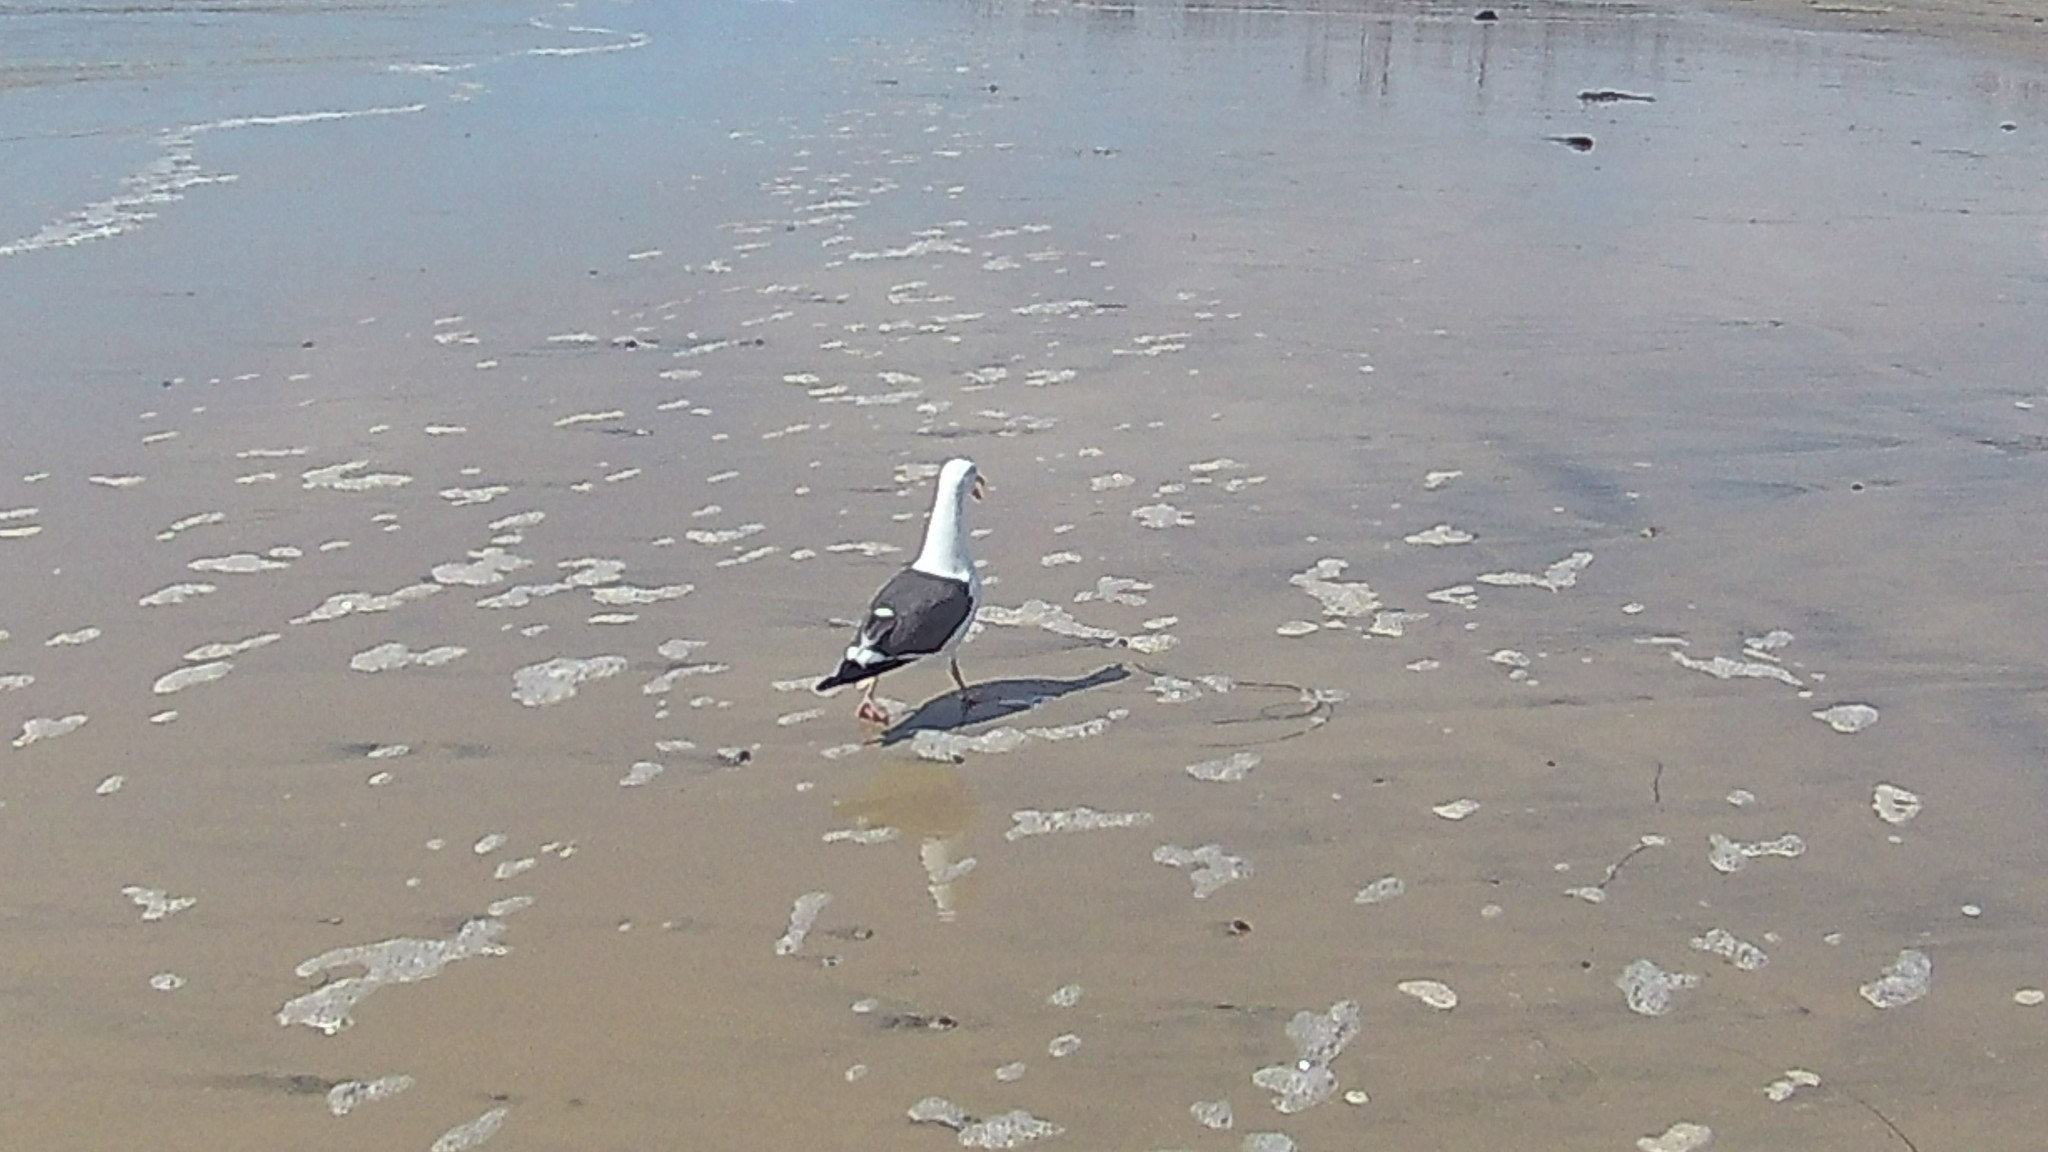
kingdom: Animalia
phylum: Chordata
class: Aves
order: Charadriiformes
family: Laridae
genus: Larus
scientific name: Larus occidentalis
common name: Western gull
